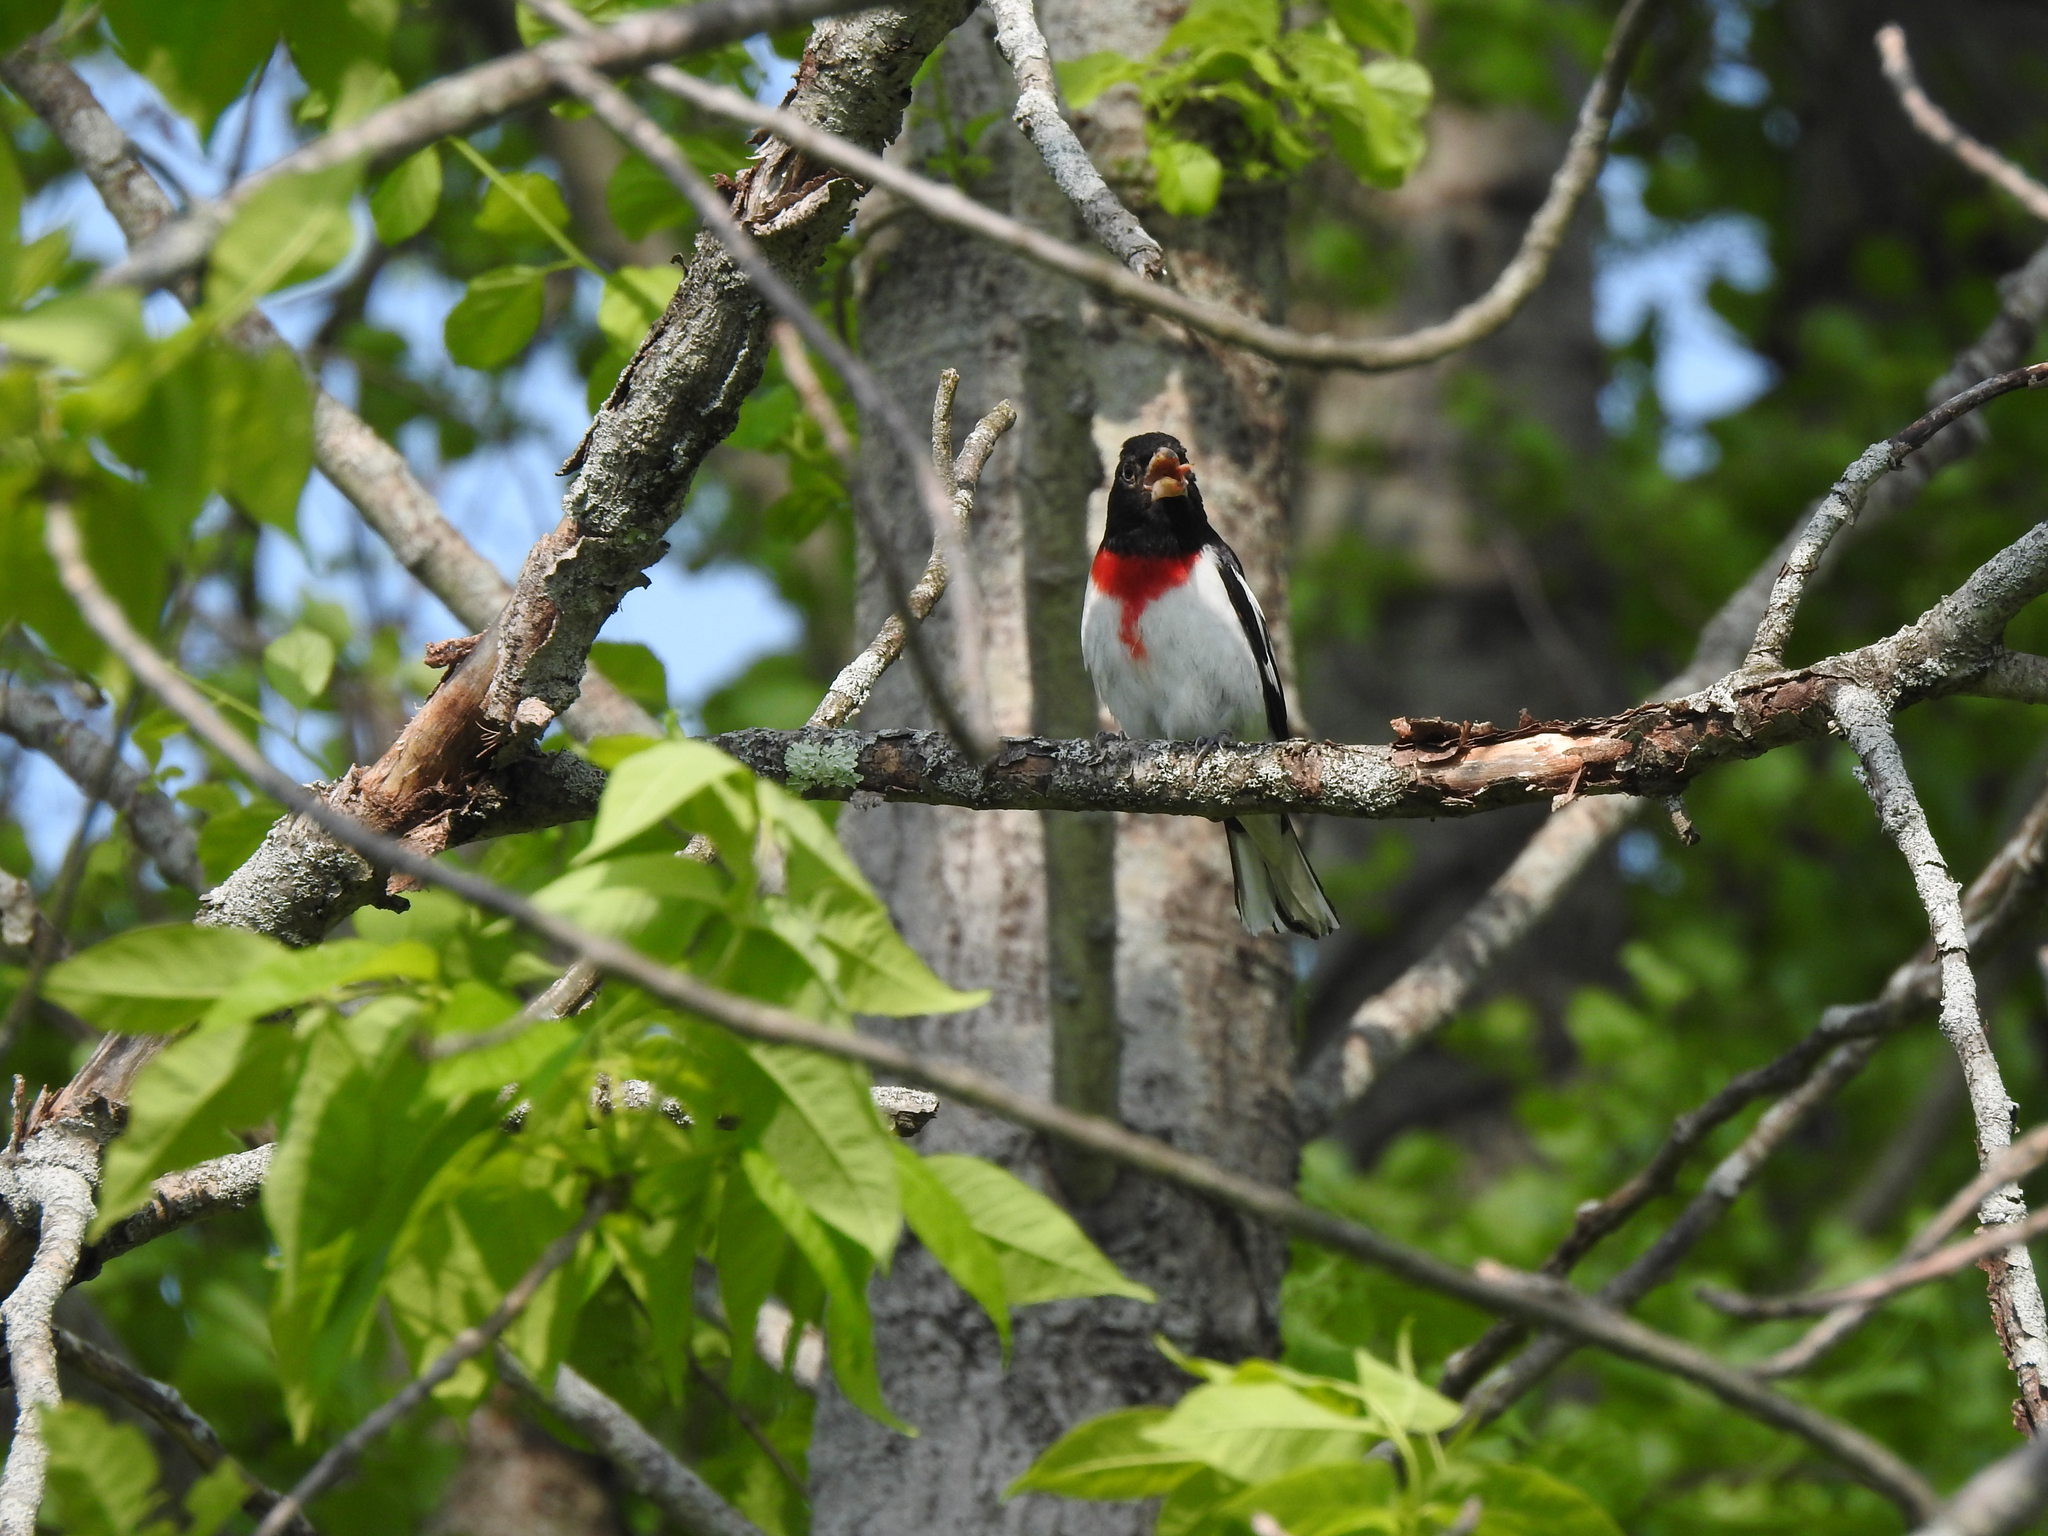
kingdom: Animalia
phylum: Chordata
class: Aves
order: Passeriformes
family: Cardinalidae
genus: Pheucticus
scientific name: Pheucticus ludovicianus
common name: Rose-breasted grosbeak
